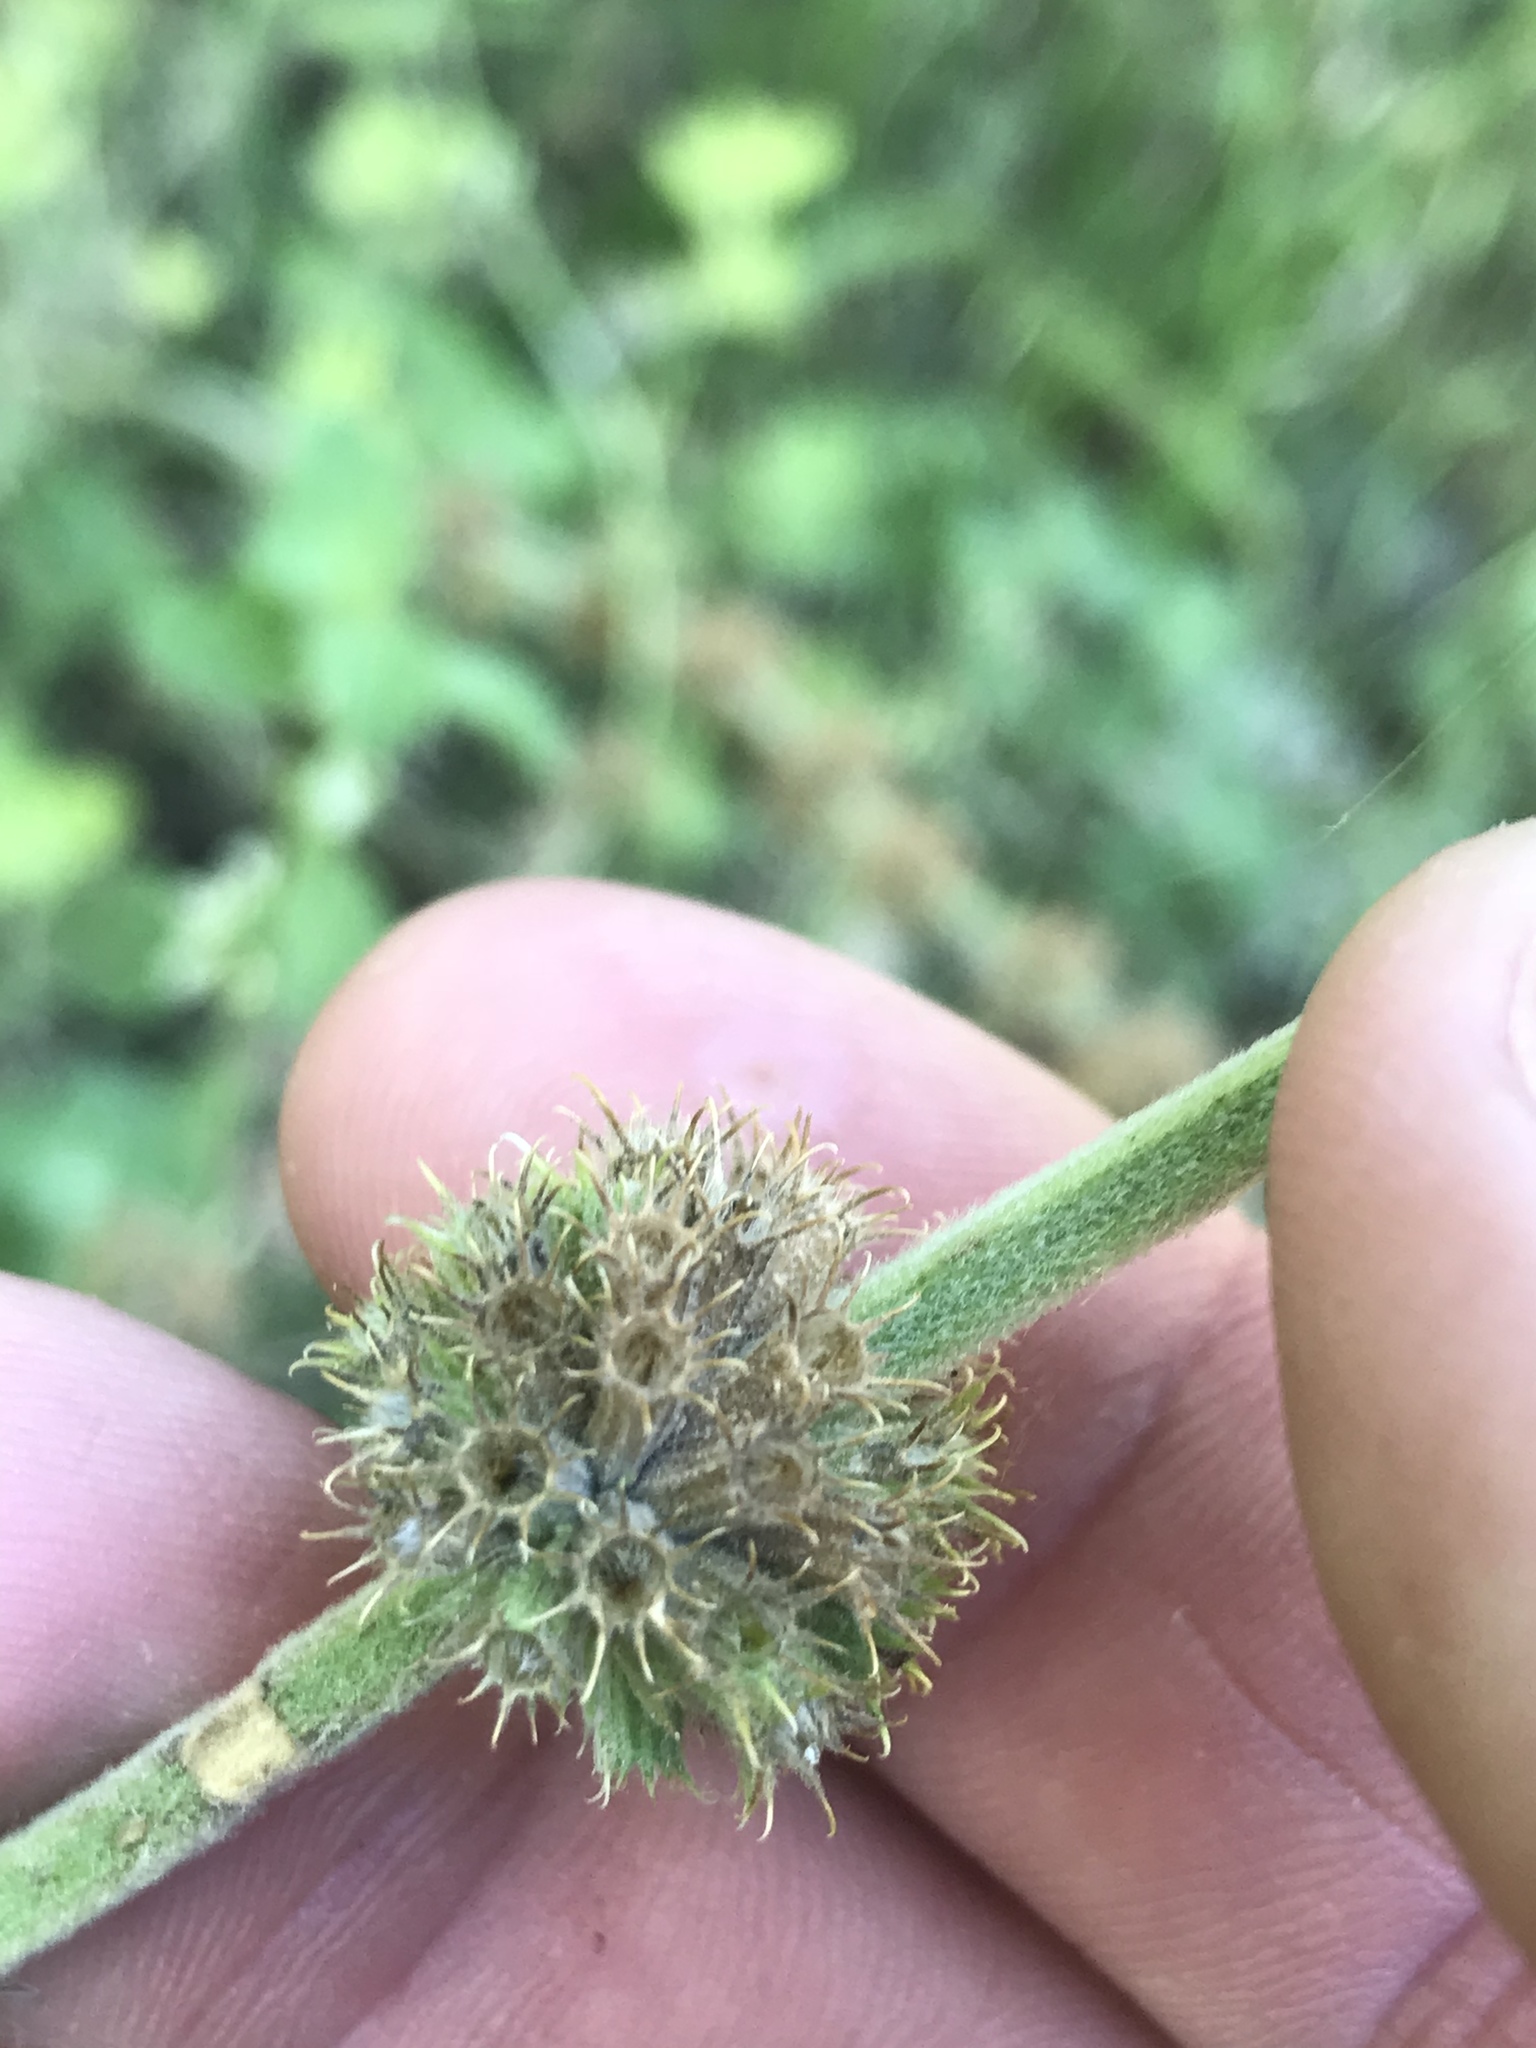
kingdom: Plantae
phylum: Tracheophyta
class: Magnoliopsida
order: Lamiales
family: Lamiaceae
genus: Marrubium
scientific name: Marrubium vulgare
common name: Horehound
